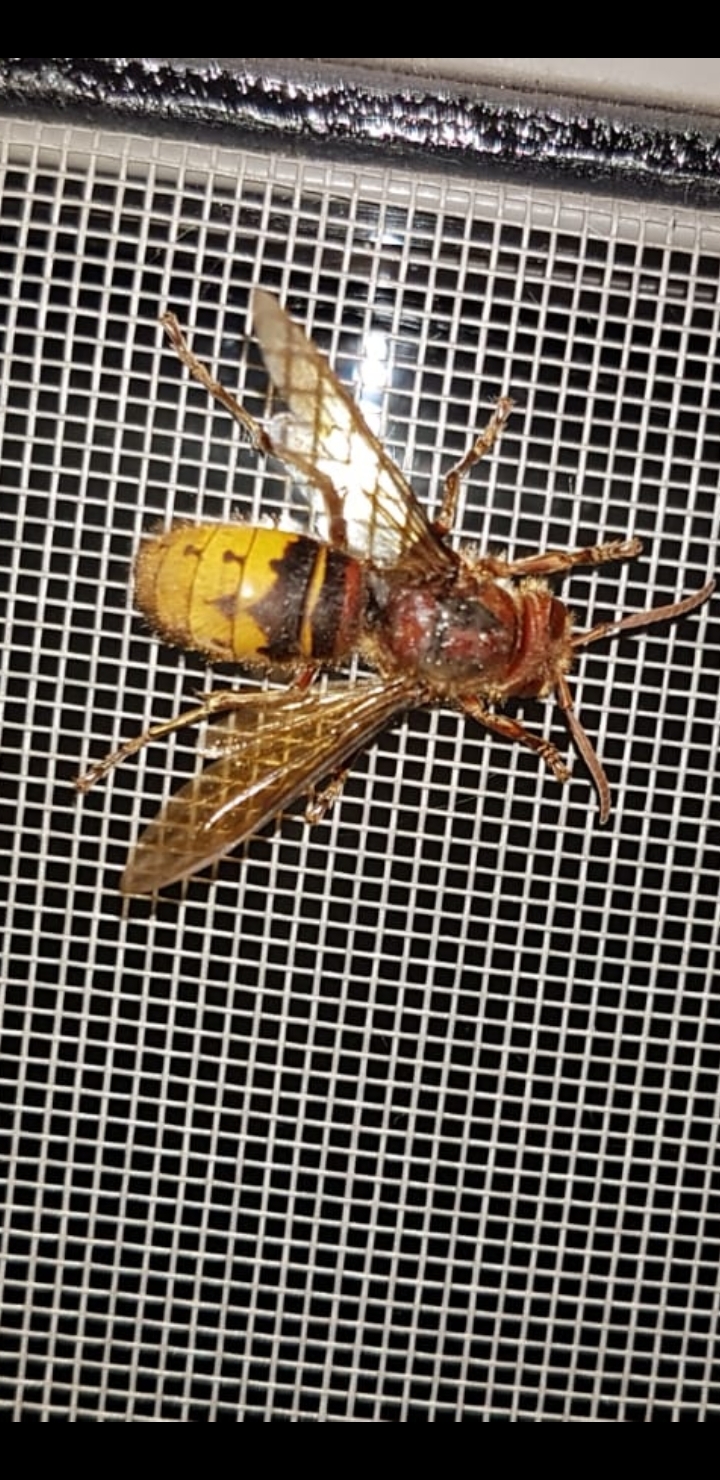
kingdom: Animalia
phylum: Arthropoda
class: Insecta
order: Hymenoptera
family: Vespidae
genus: Vespa
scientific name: Vespa crabro
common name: Hornet
